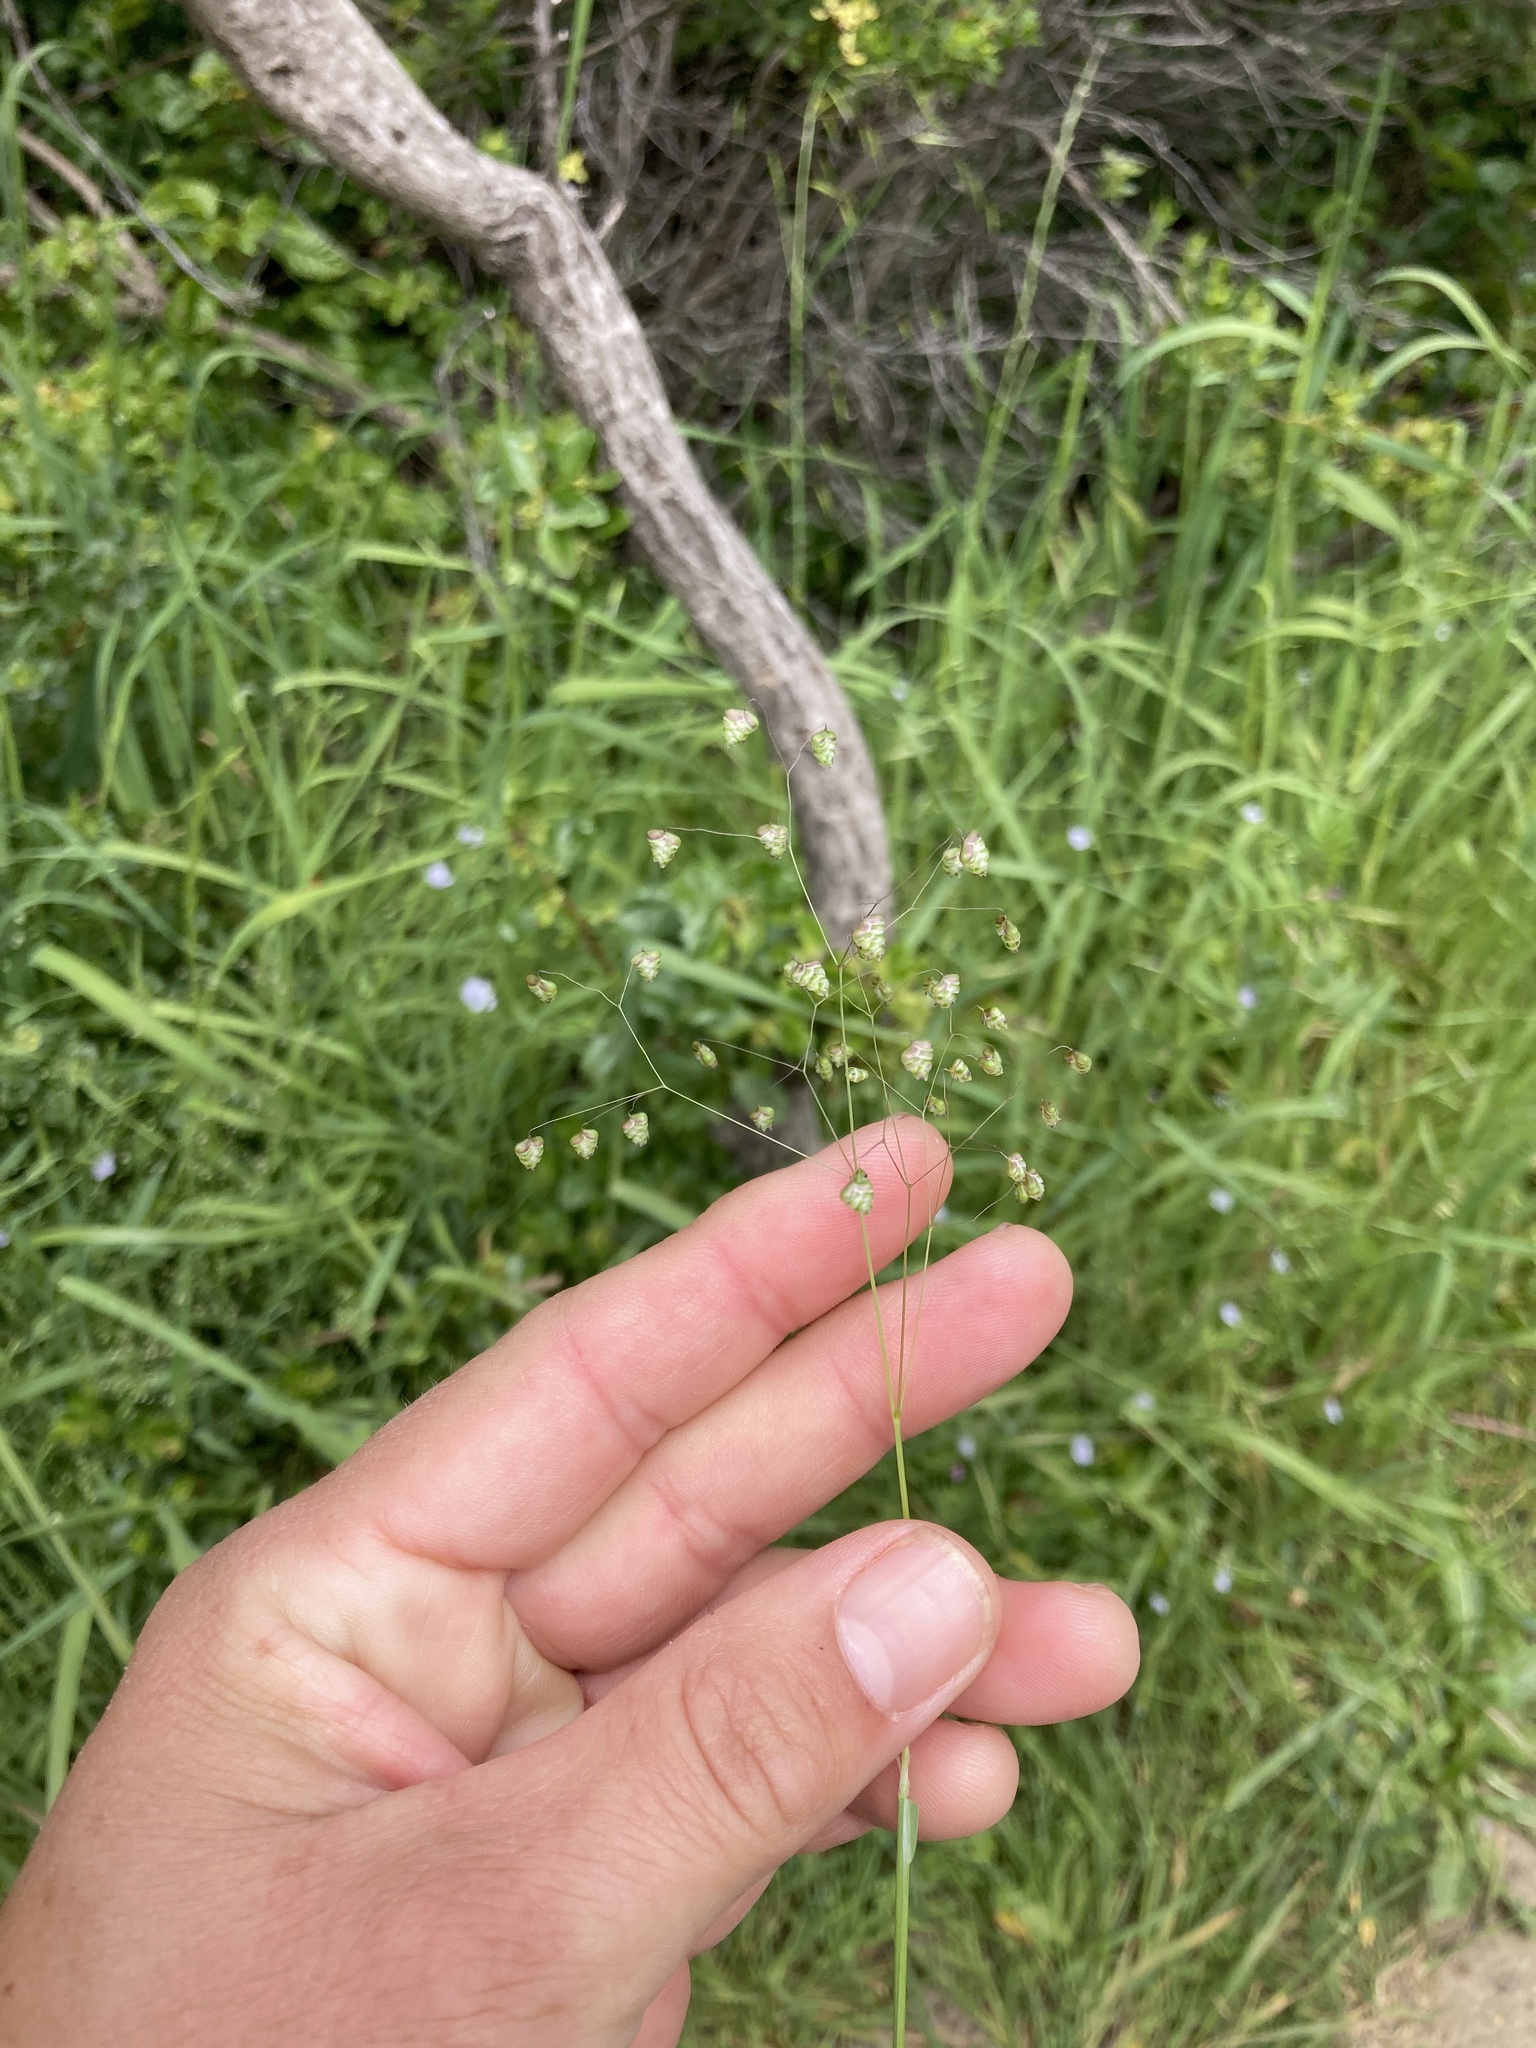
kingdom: Plantae
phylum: Tracheophyta
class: Liliopsida
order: Poales
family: Poaceae
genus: Briza
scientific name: Briza minor
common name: Lesser quaking-grass
